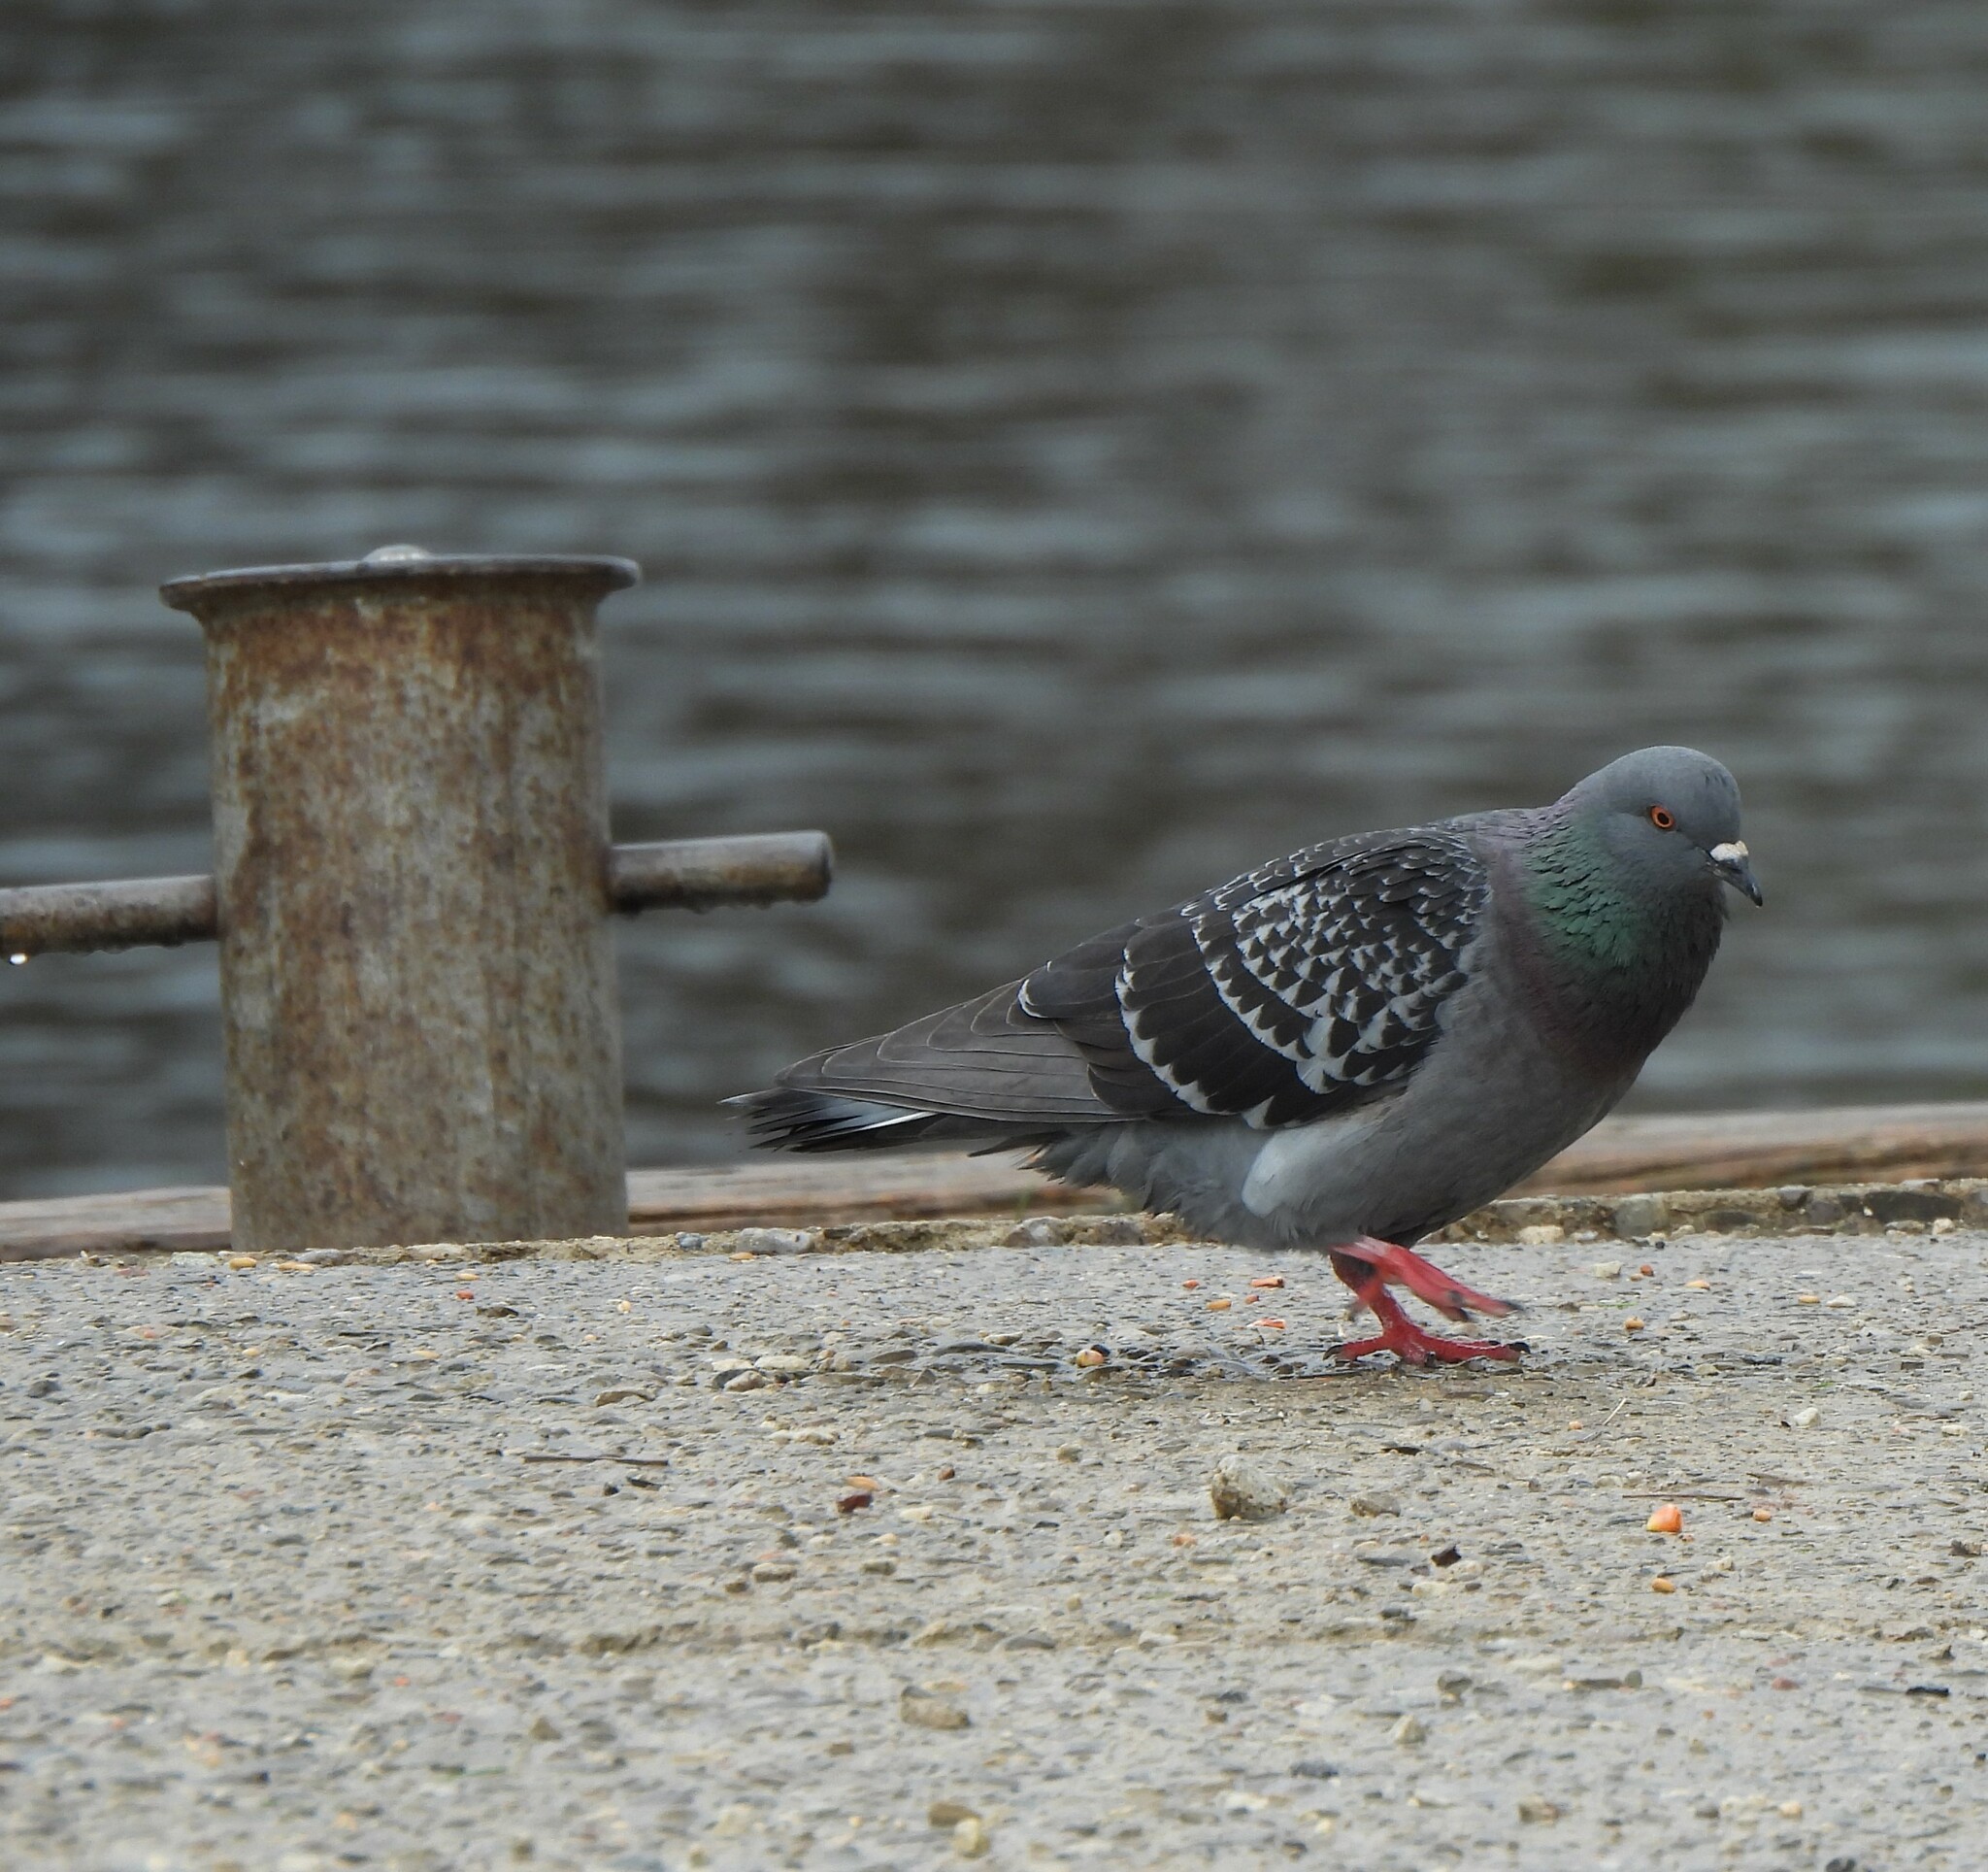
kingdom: Animalia
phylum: Chordata
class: Aves
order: Columbiformes
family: Columbidae
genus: Columba
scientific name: Columba livia
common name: Rock pigeon
